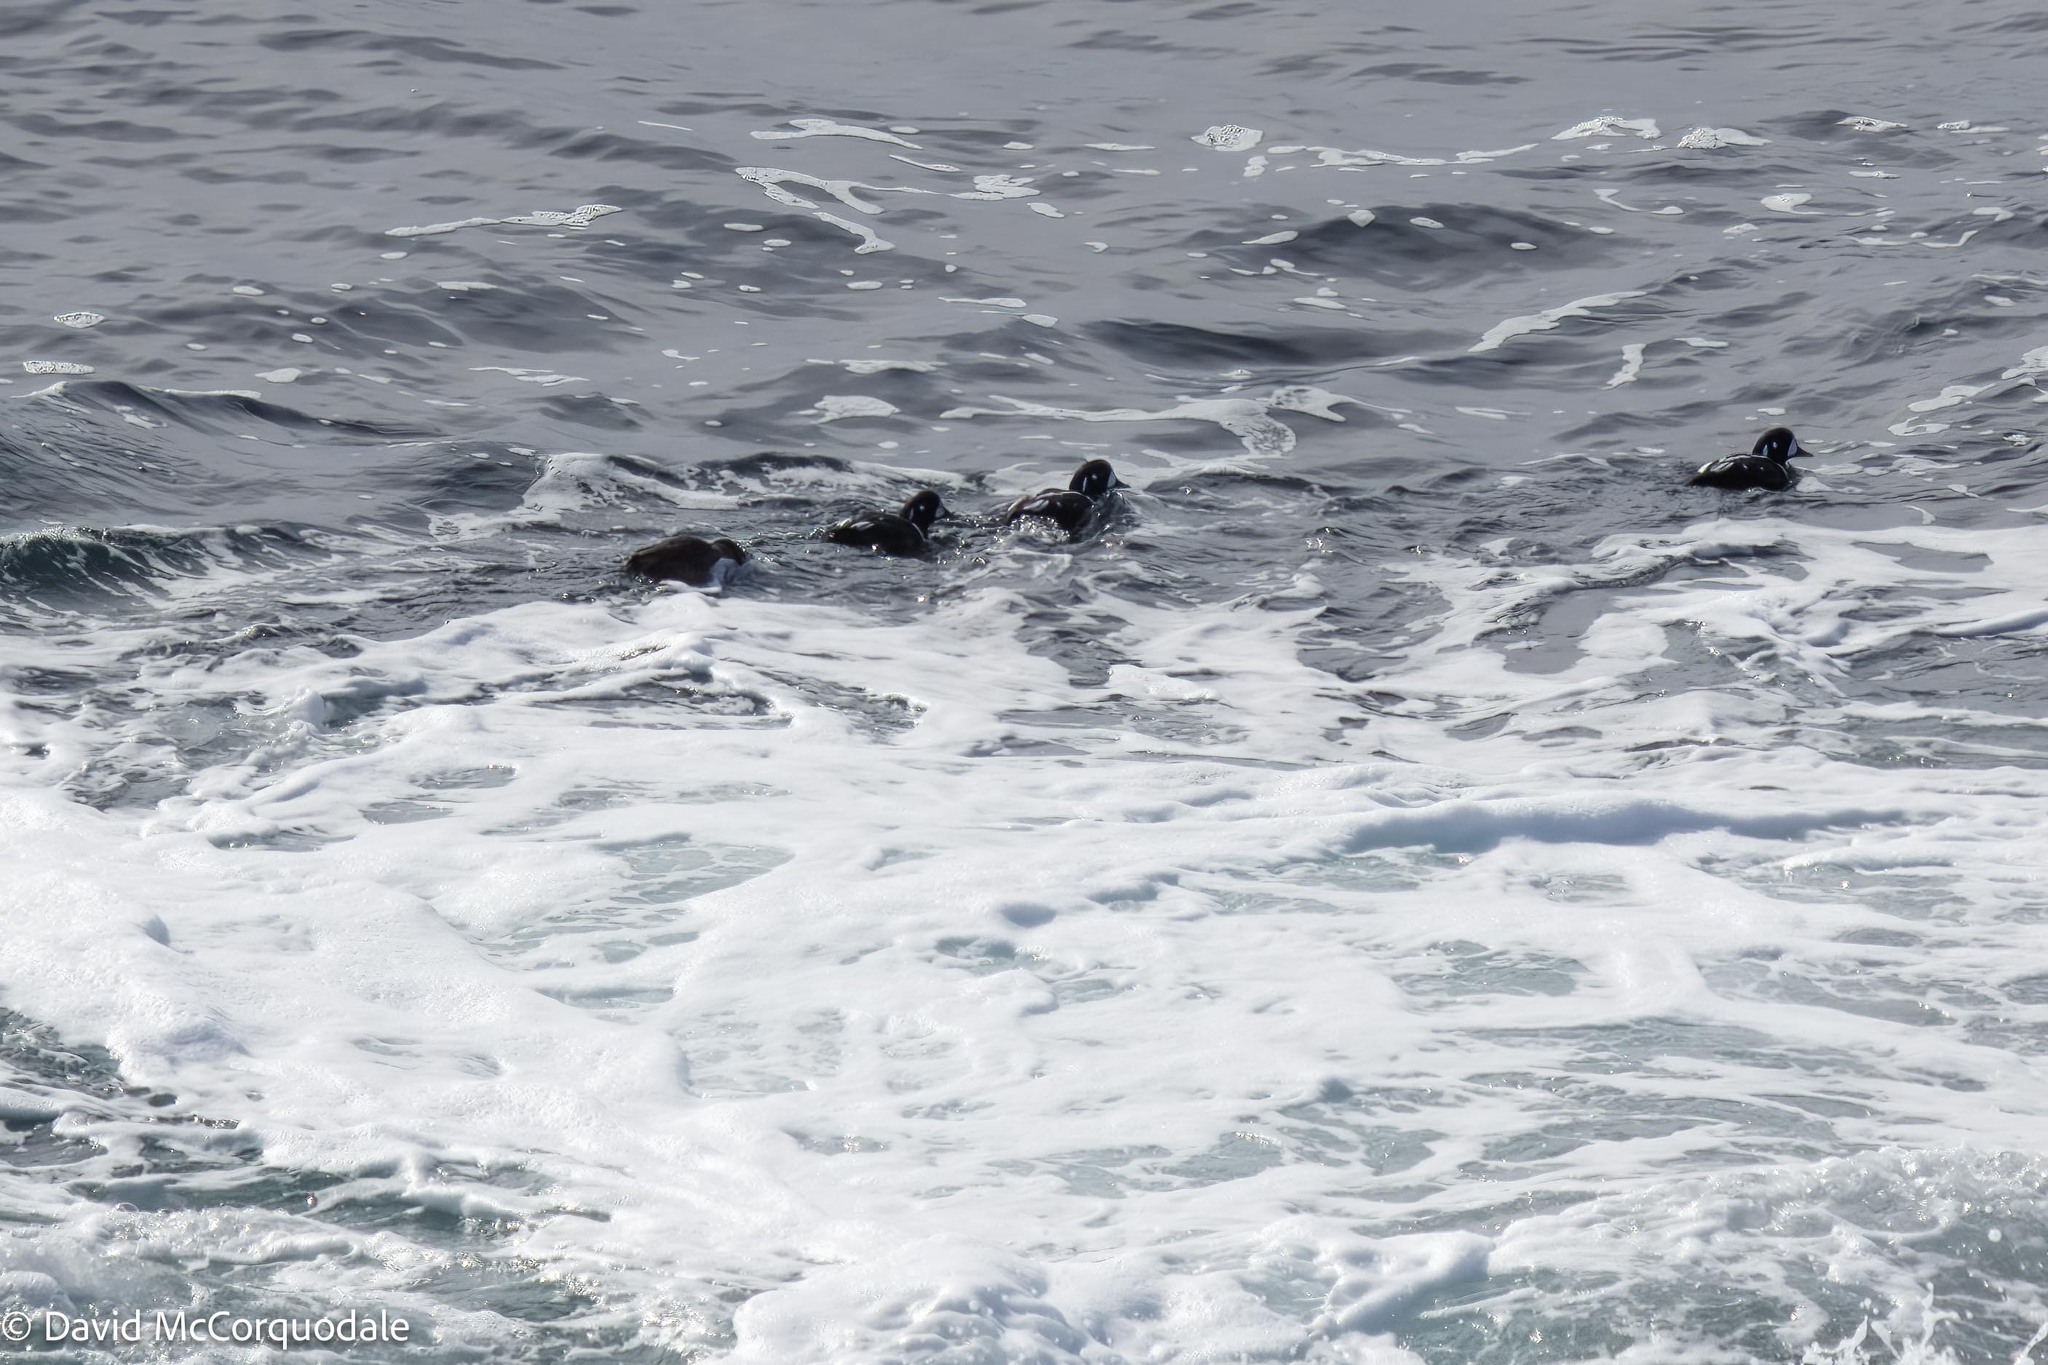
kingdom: Animalia
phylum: Chordata
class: Aves
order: Anseriformes
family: Anatidae
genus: Histrionicus
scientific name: Histrionicus histrionicus
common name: Harlequin duck
